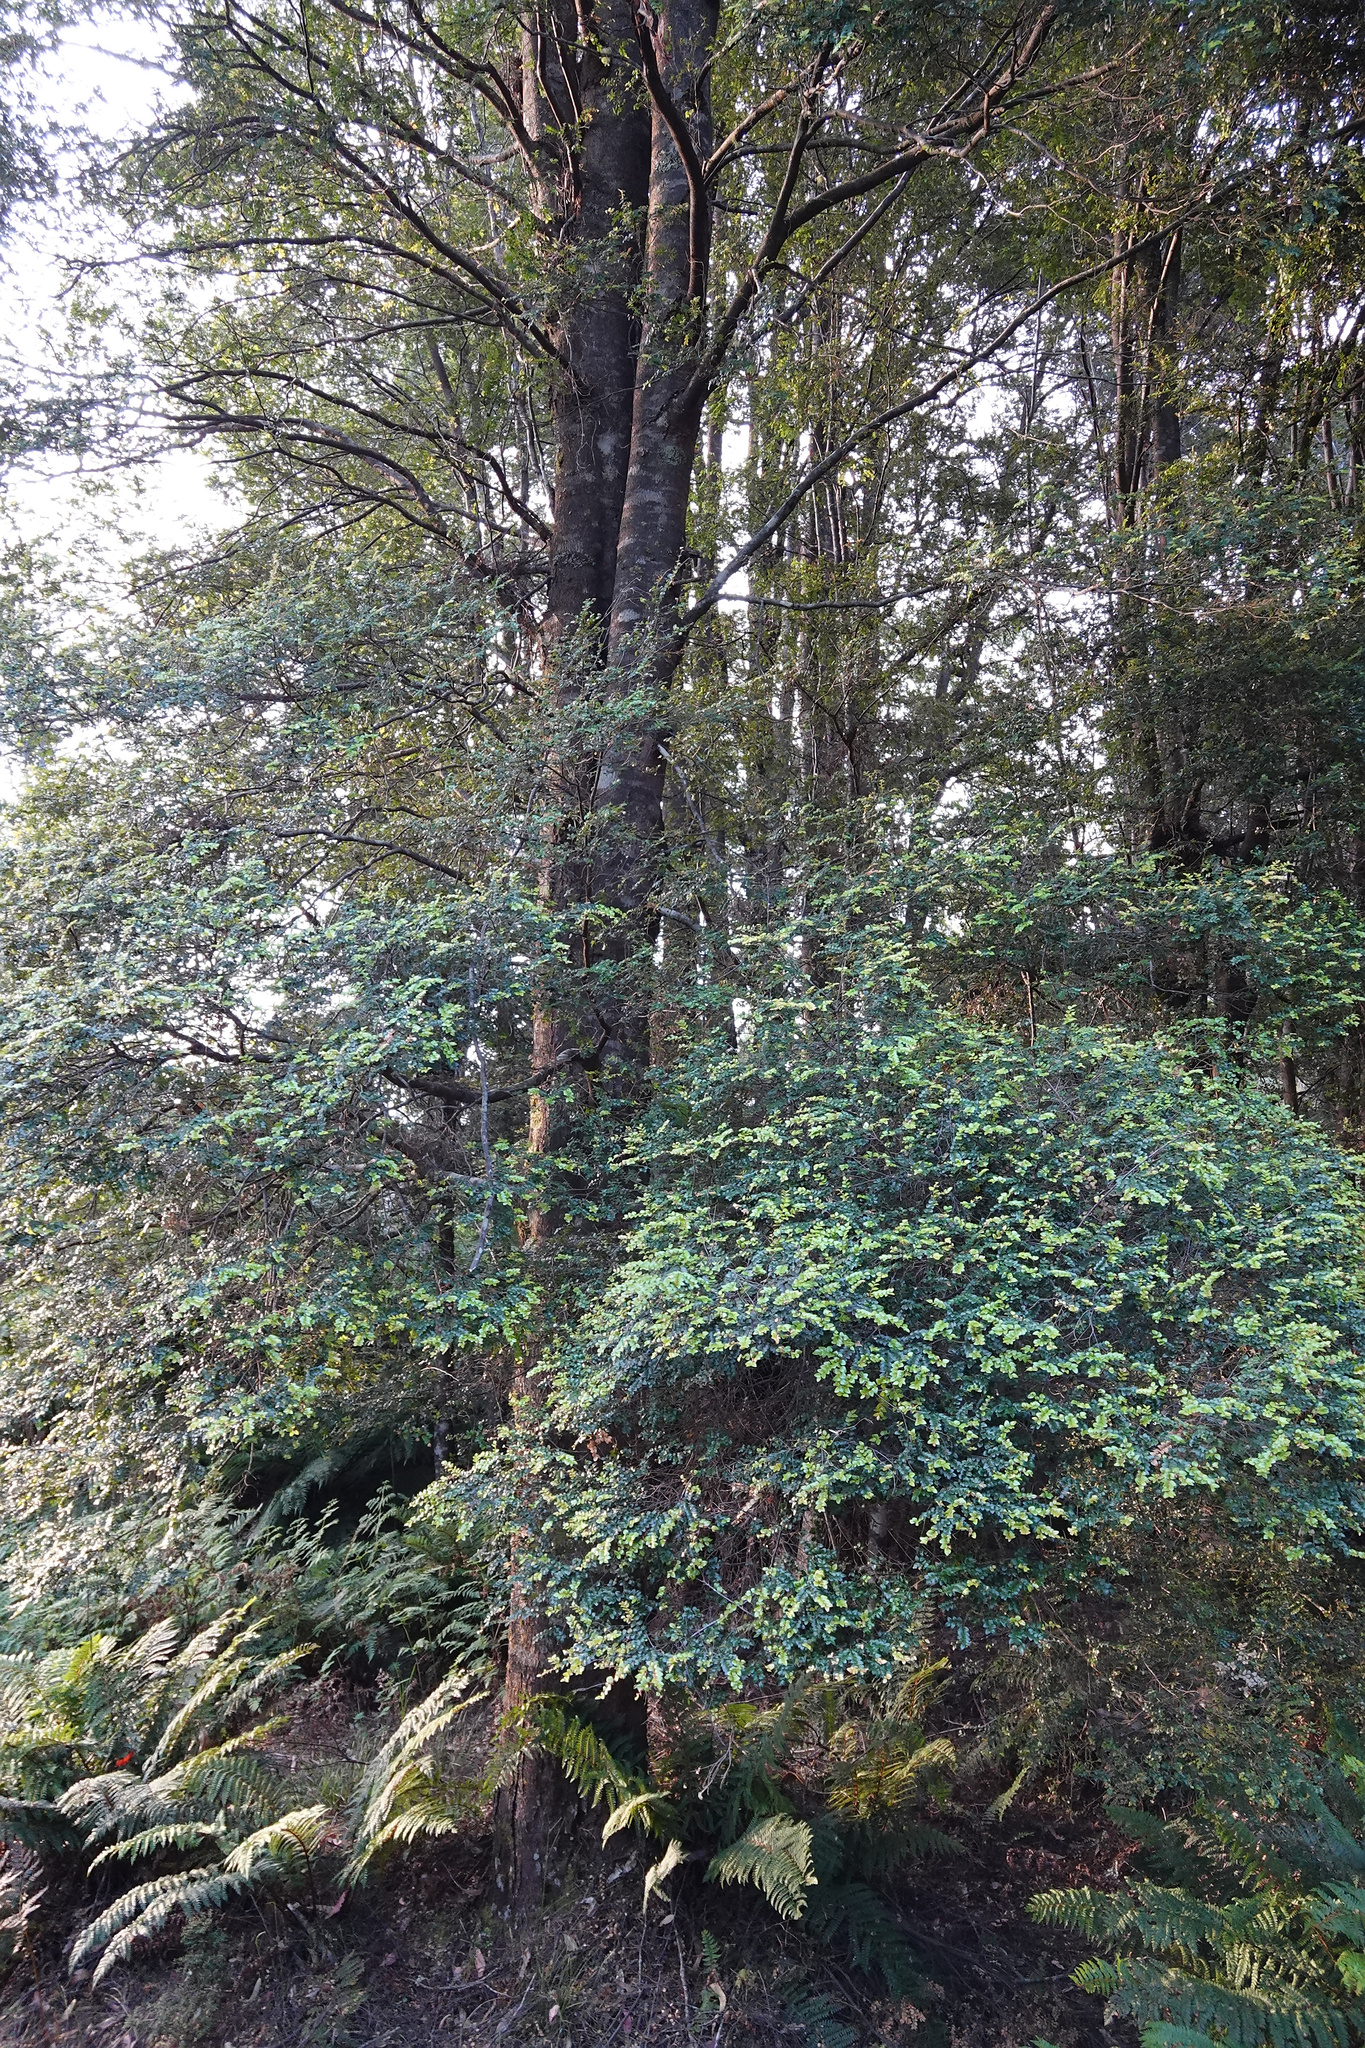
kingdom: Plantae
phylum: Tracheophyta
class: Magnoliopsida
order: Fagales
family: Nothofagaceae
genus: Nothofagus
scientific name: Nothofagus cunninghamii
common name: Myrtle beech
